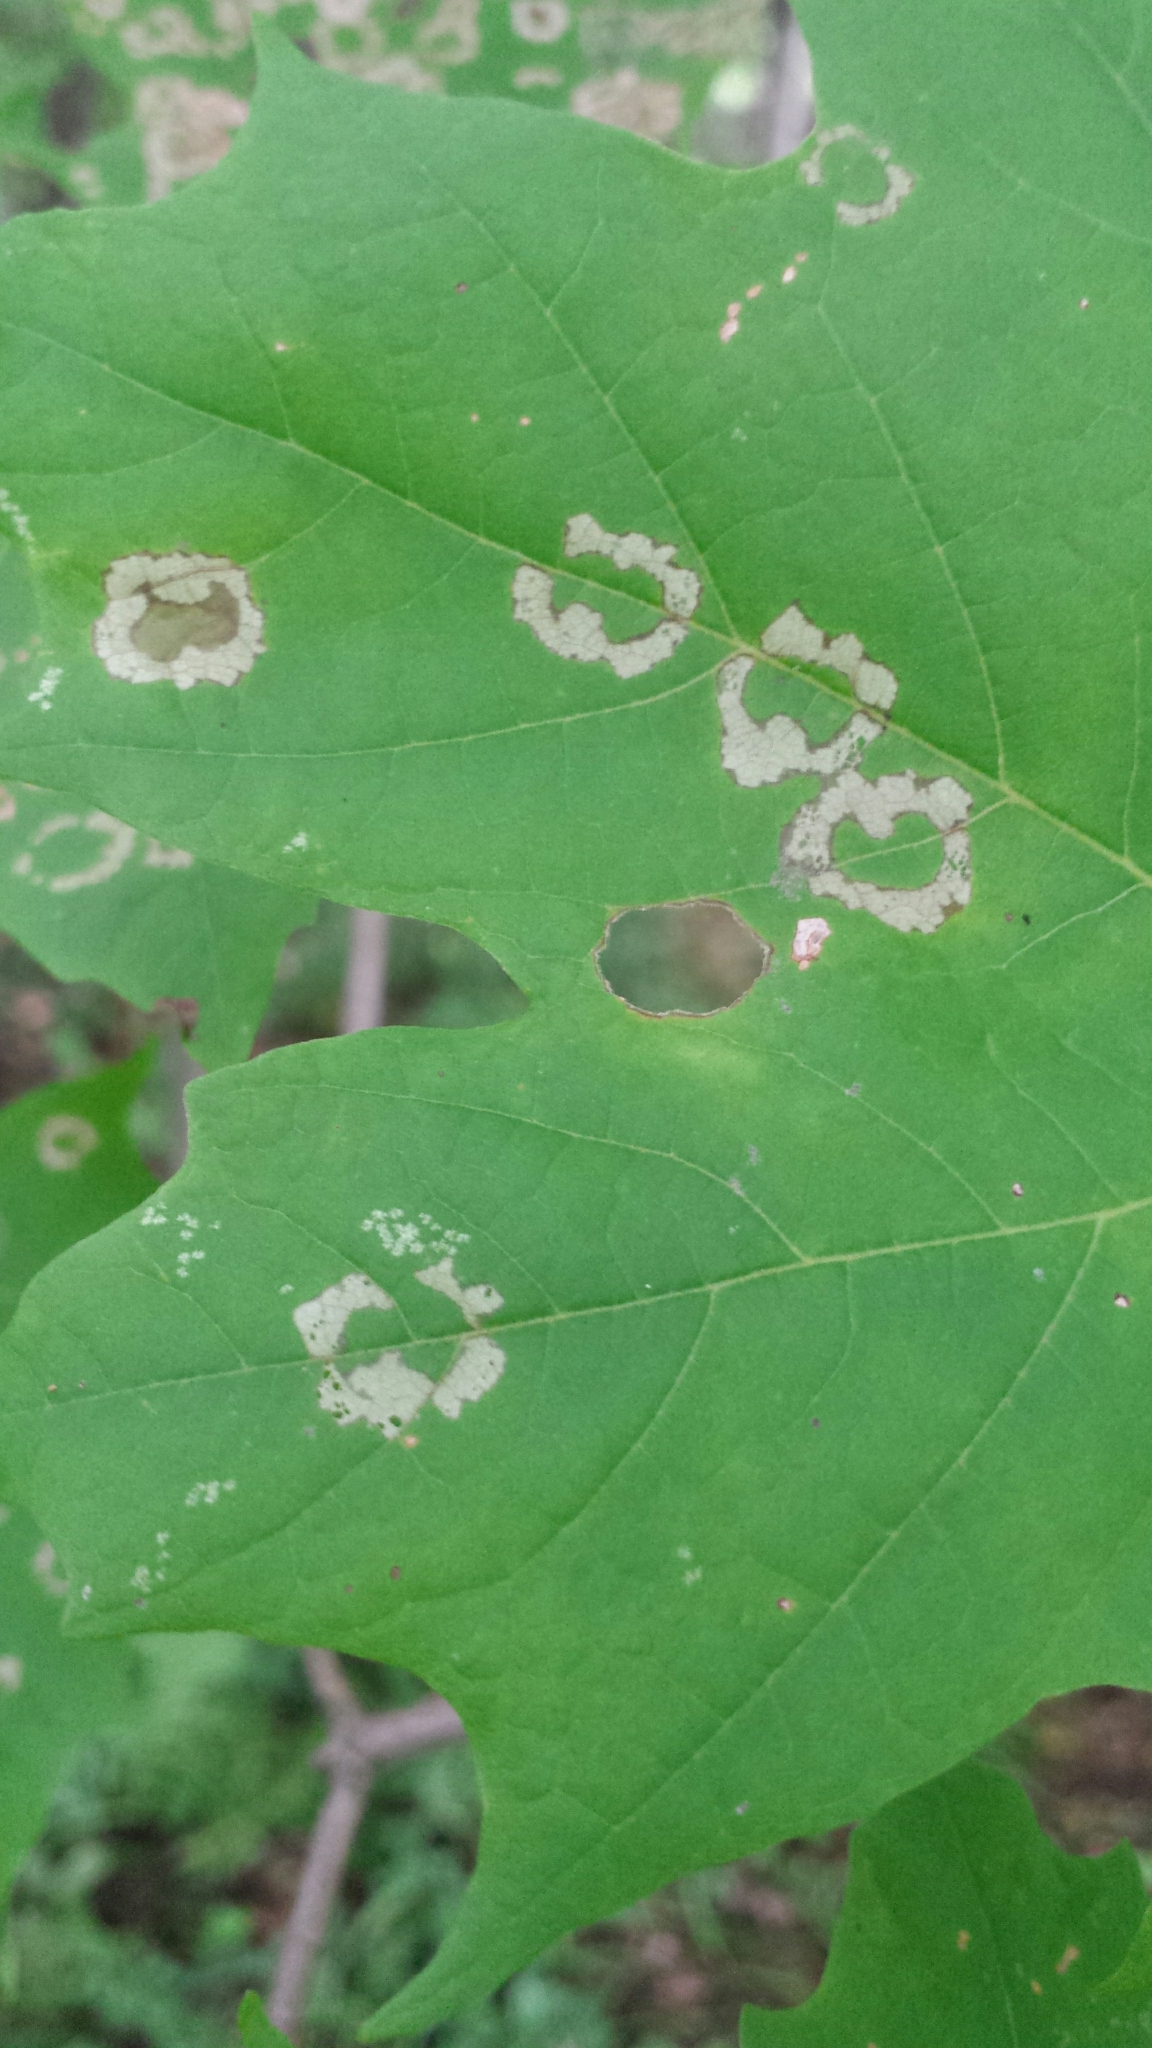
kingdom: Animalia
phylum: Arthropoda
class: Insecta
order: Lepidoptera
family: Incurvariidae
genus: Paraclemensia
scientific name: Paraclemensia acerifoliella
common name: Maple leafcutter
